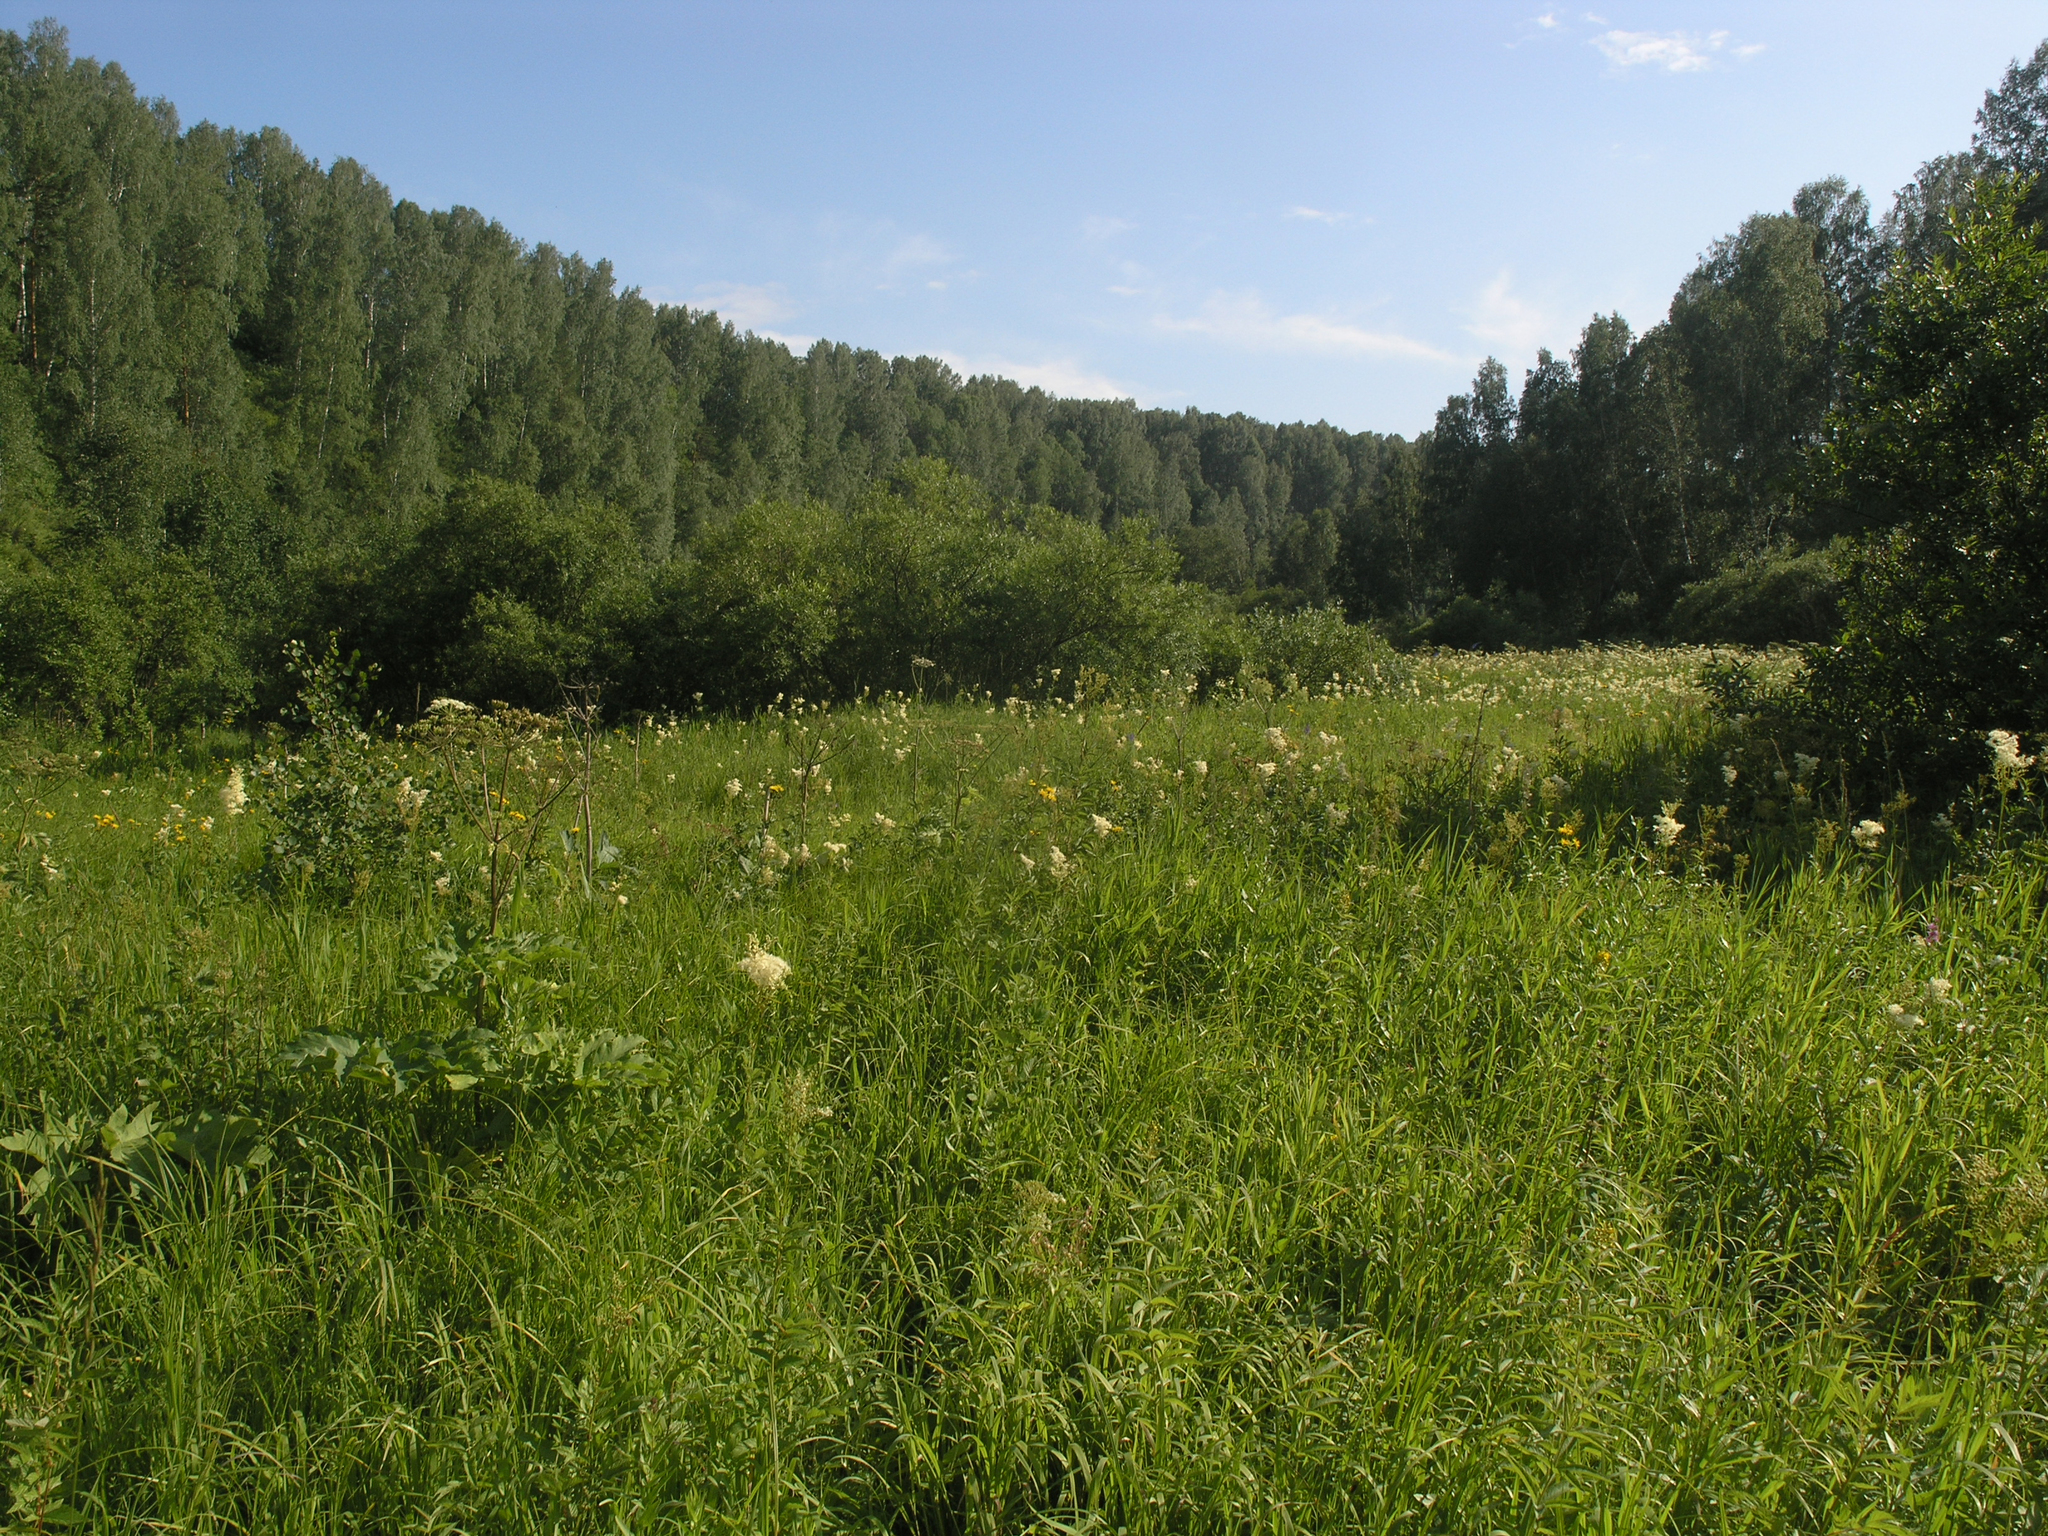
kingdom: Plantae
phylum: Tracheophyta
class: Magnoliopsida
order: Rosales
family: Rosaceae
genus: Filipendula
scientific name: Filipendula ulmaria
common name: Meadowsweet
